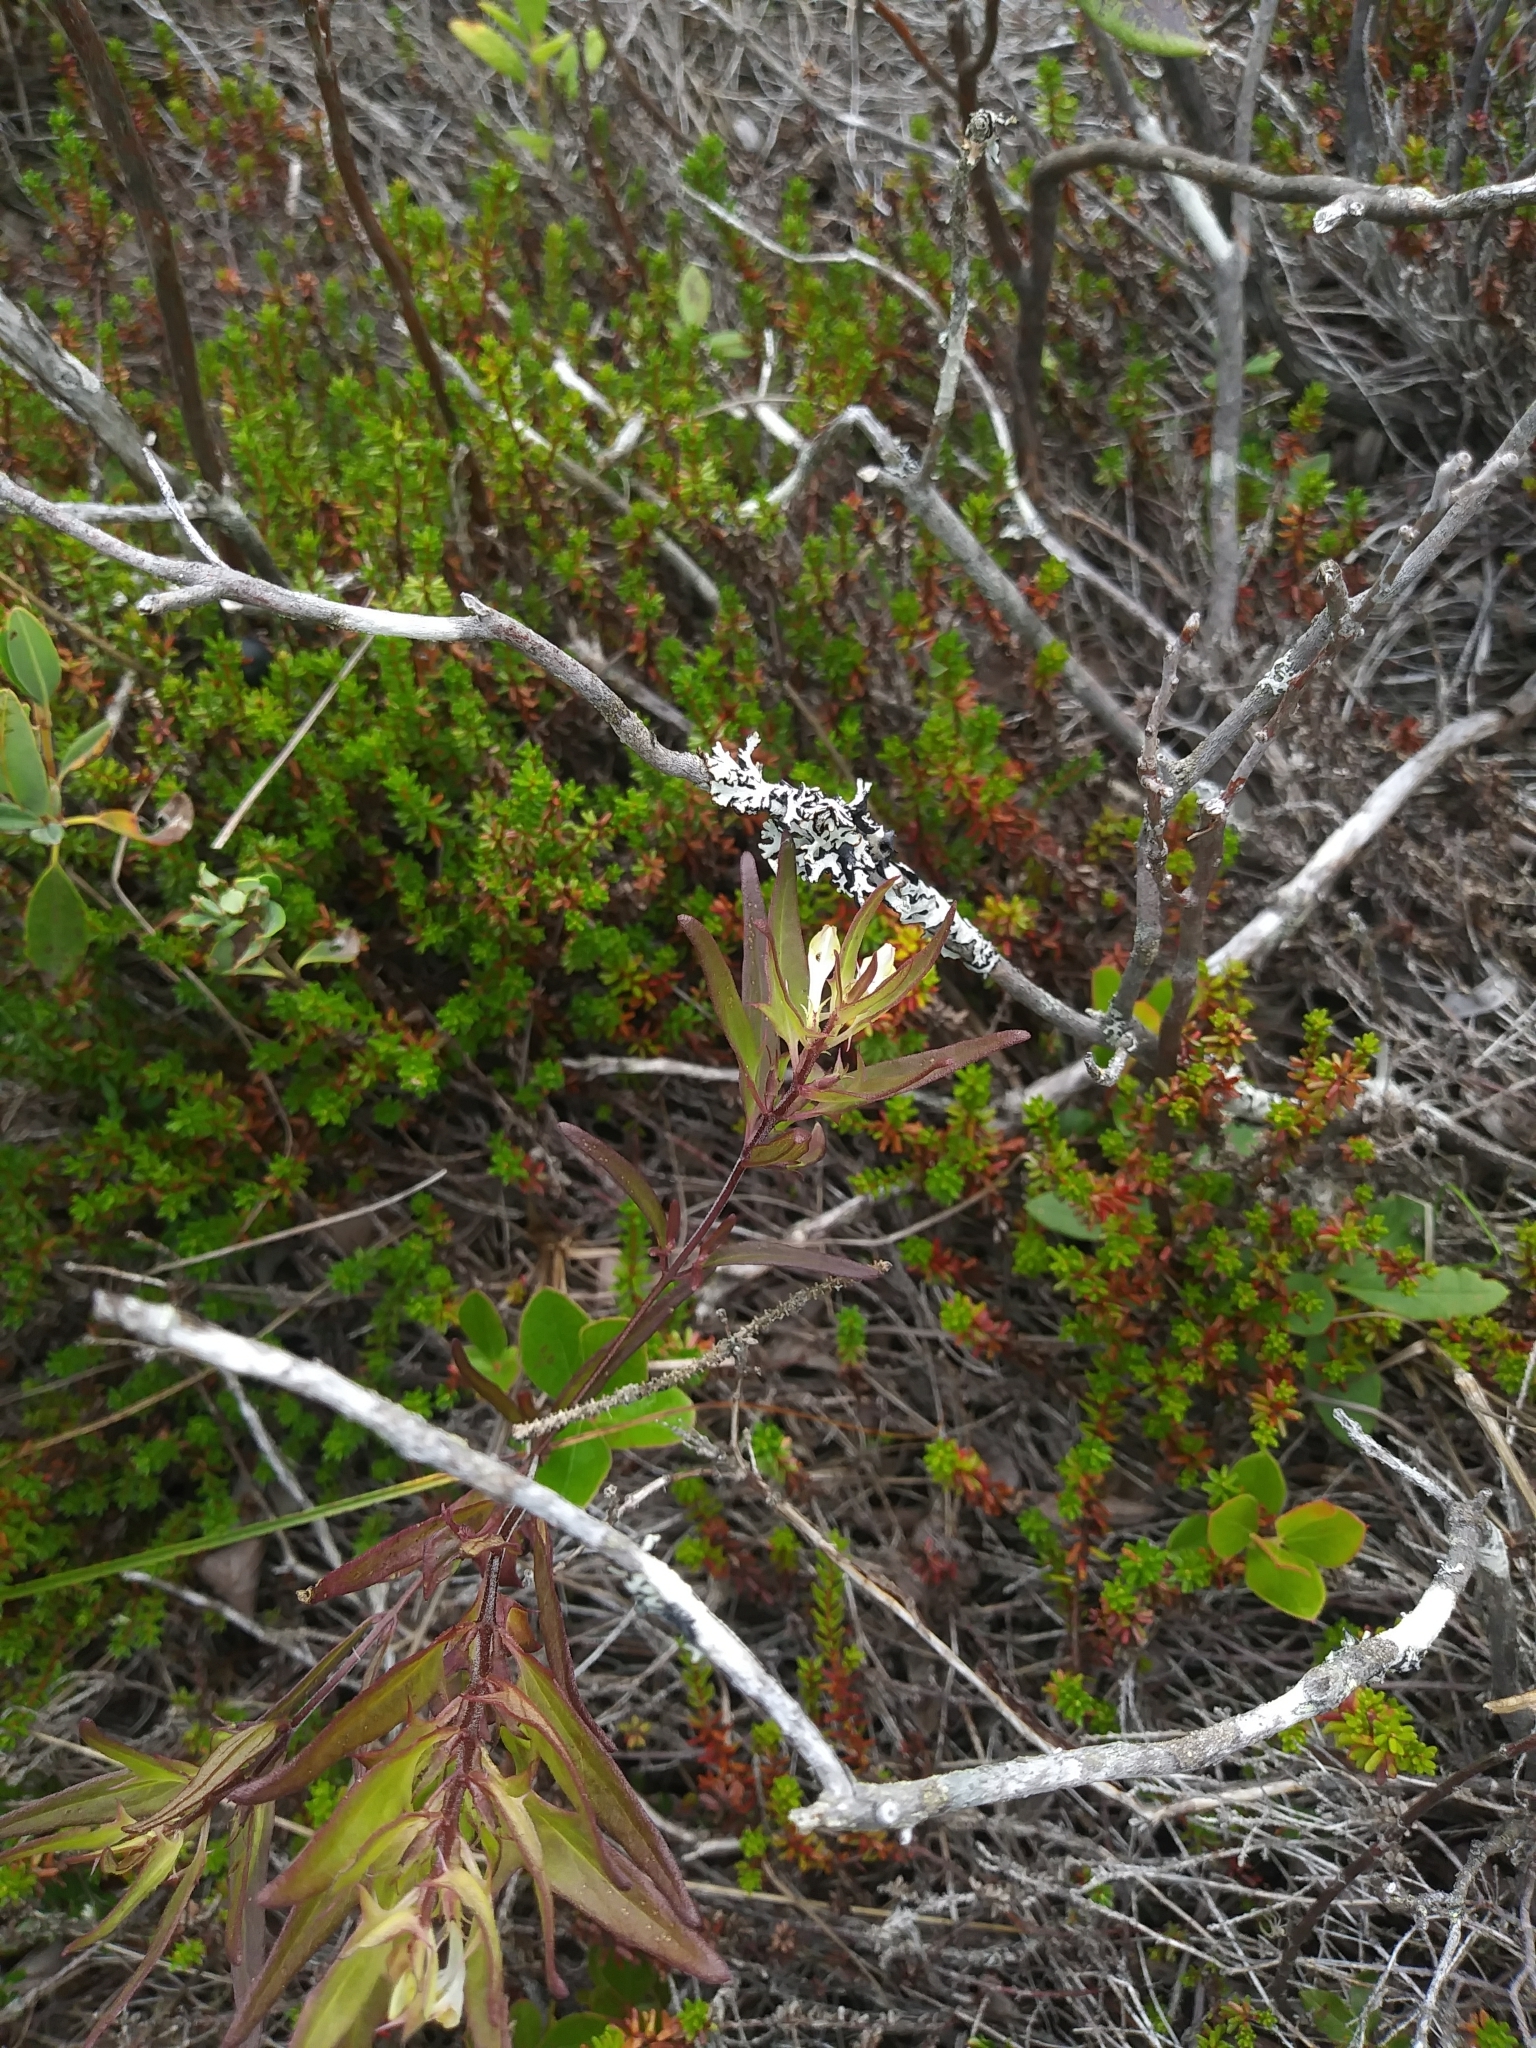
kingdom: Plantae
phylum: Tracheophyta
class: Magnoliopsida
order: Lamiales
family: Orobanchaceae
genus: Melampyrum
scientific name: Melampyrum lineare
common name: American cow-wheat
